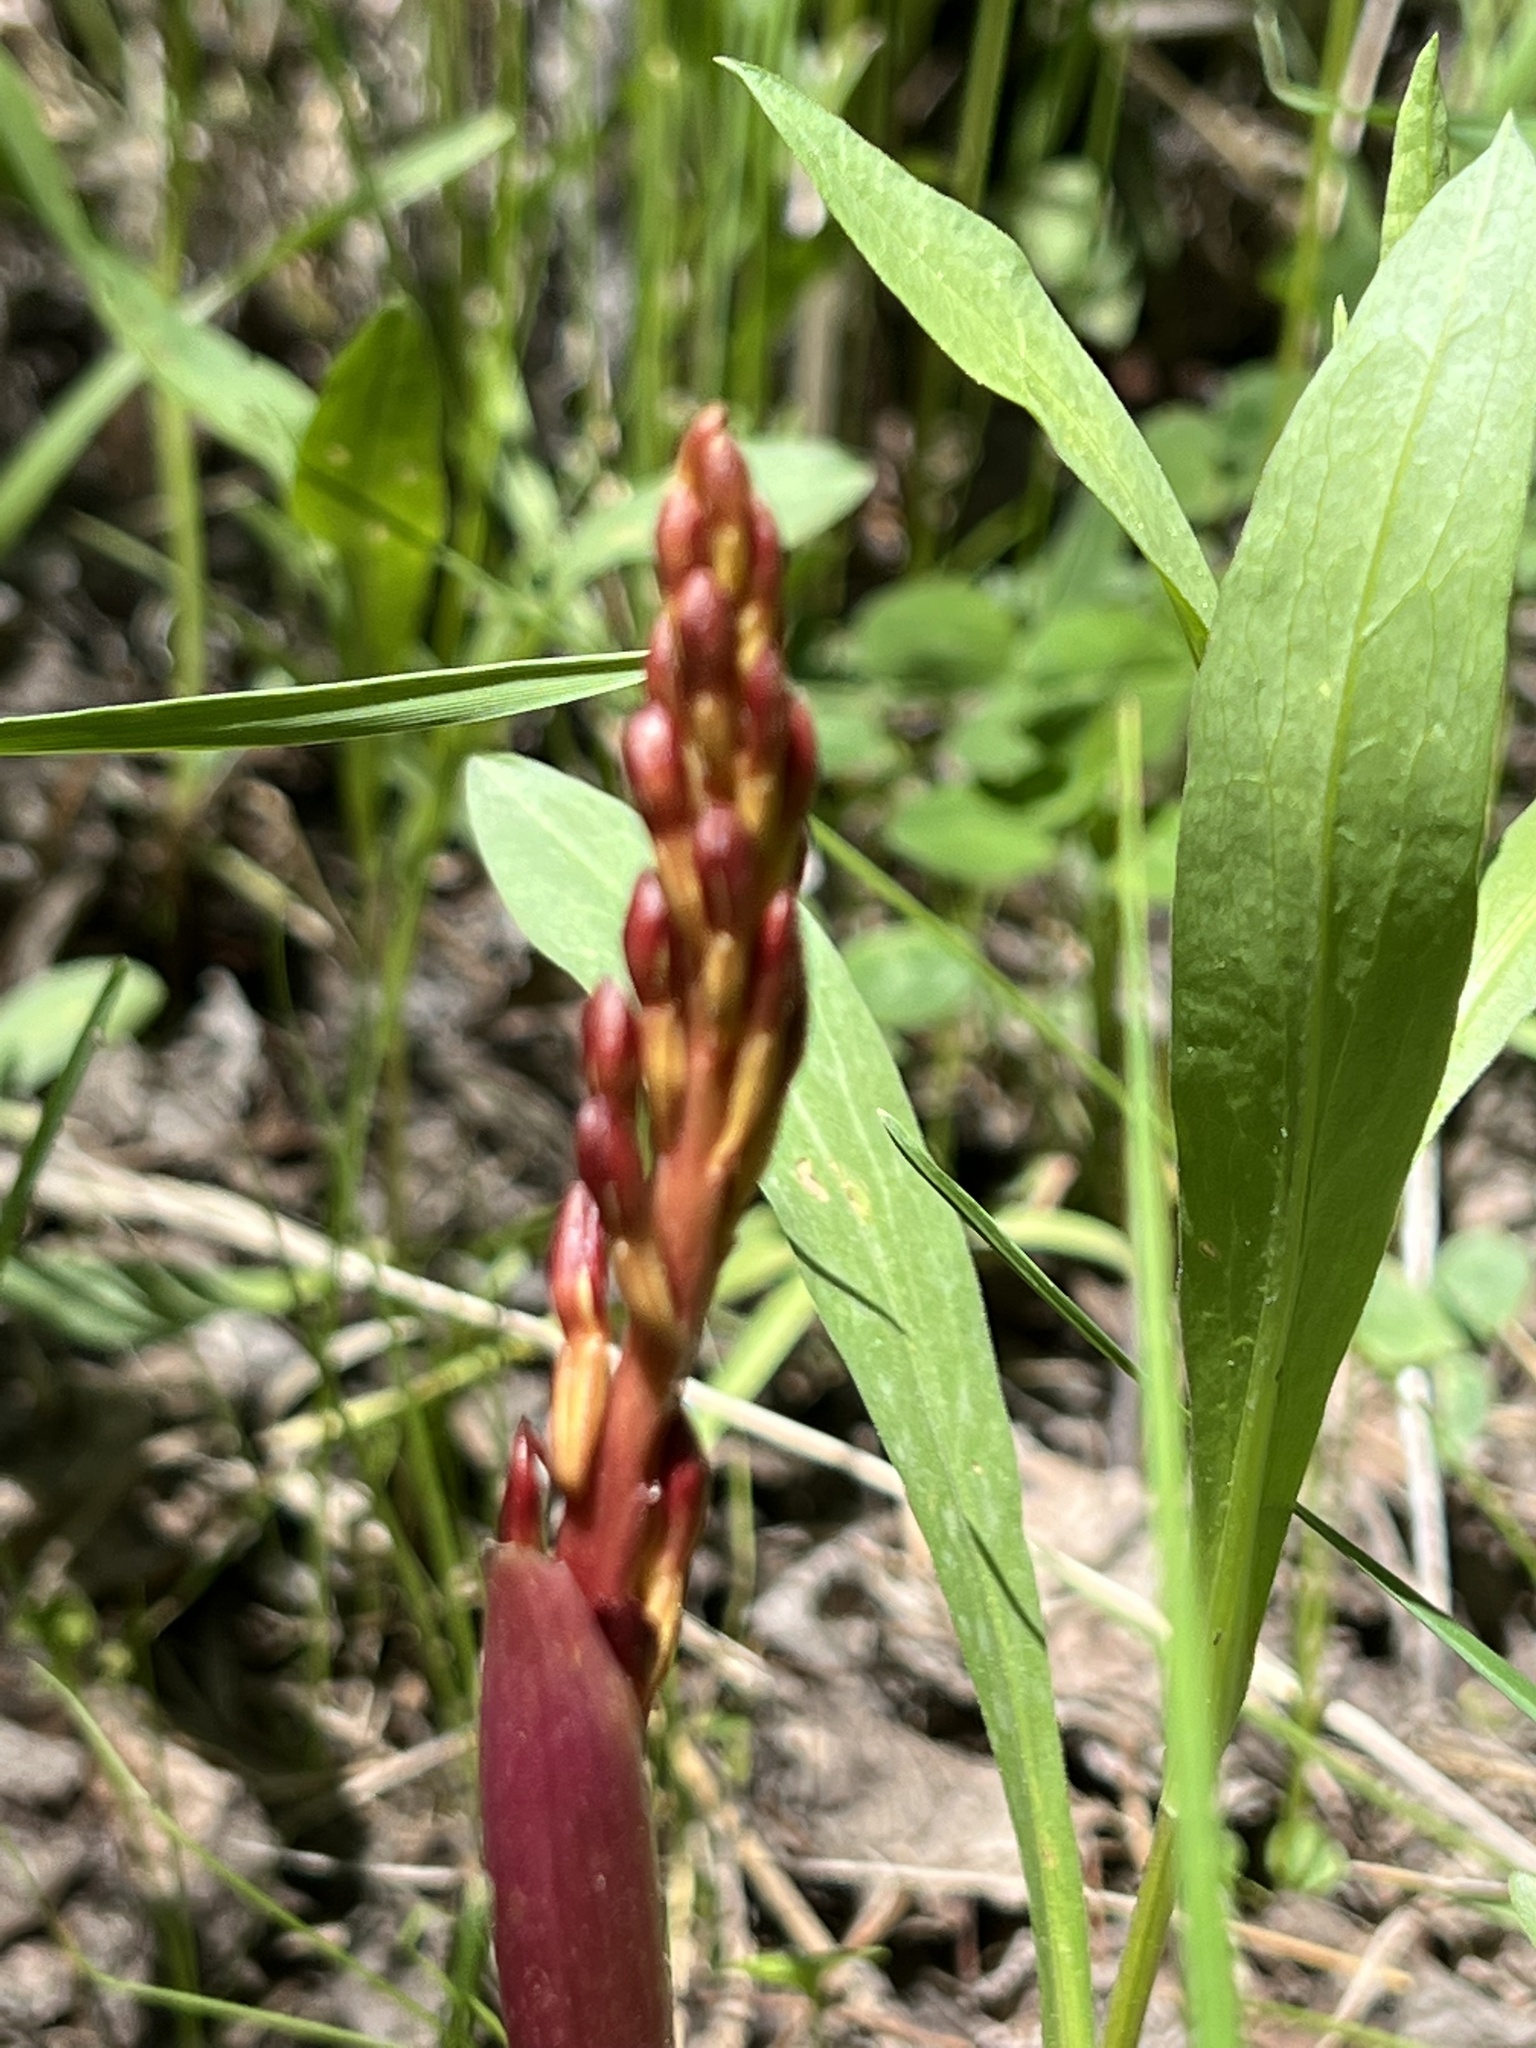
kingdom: Plantae
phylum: Tracheophyta
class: Liliopsida
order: Asparagales
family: Orchidaceae
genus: Corallorhiza
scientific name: Corallorhiza maculata
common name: Spotted coralroot
